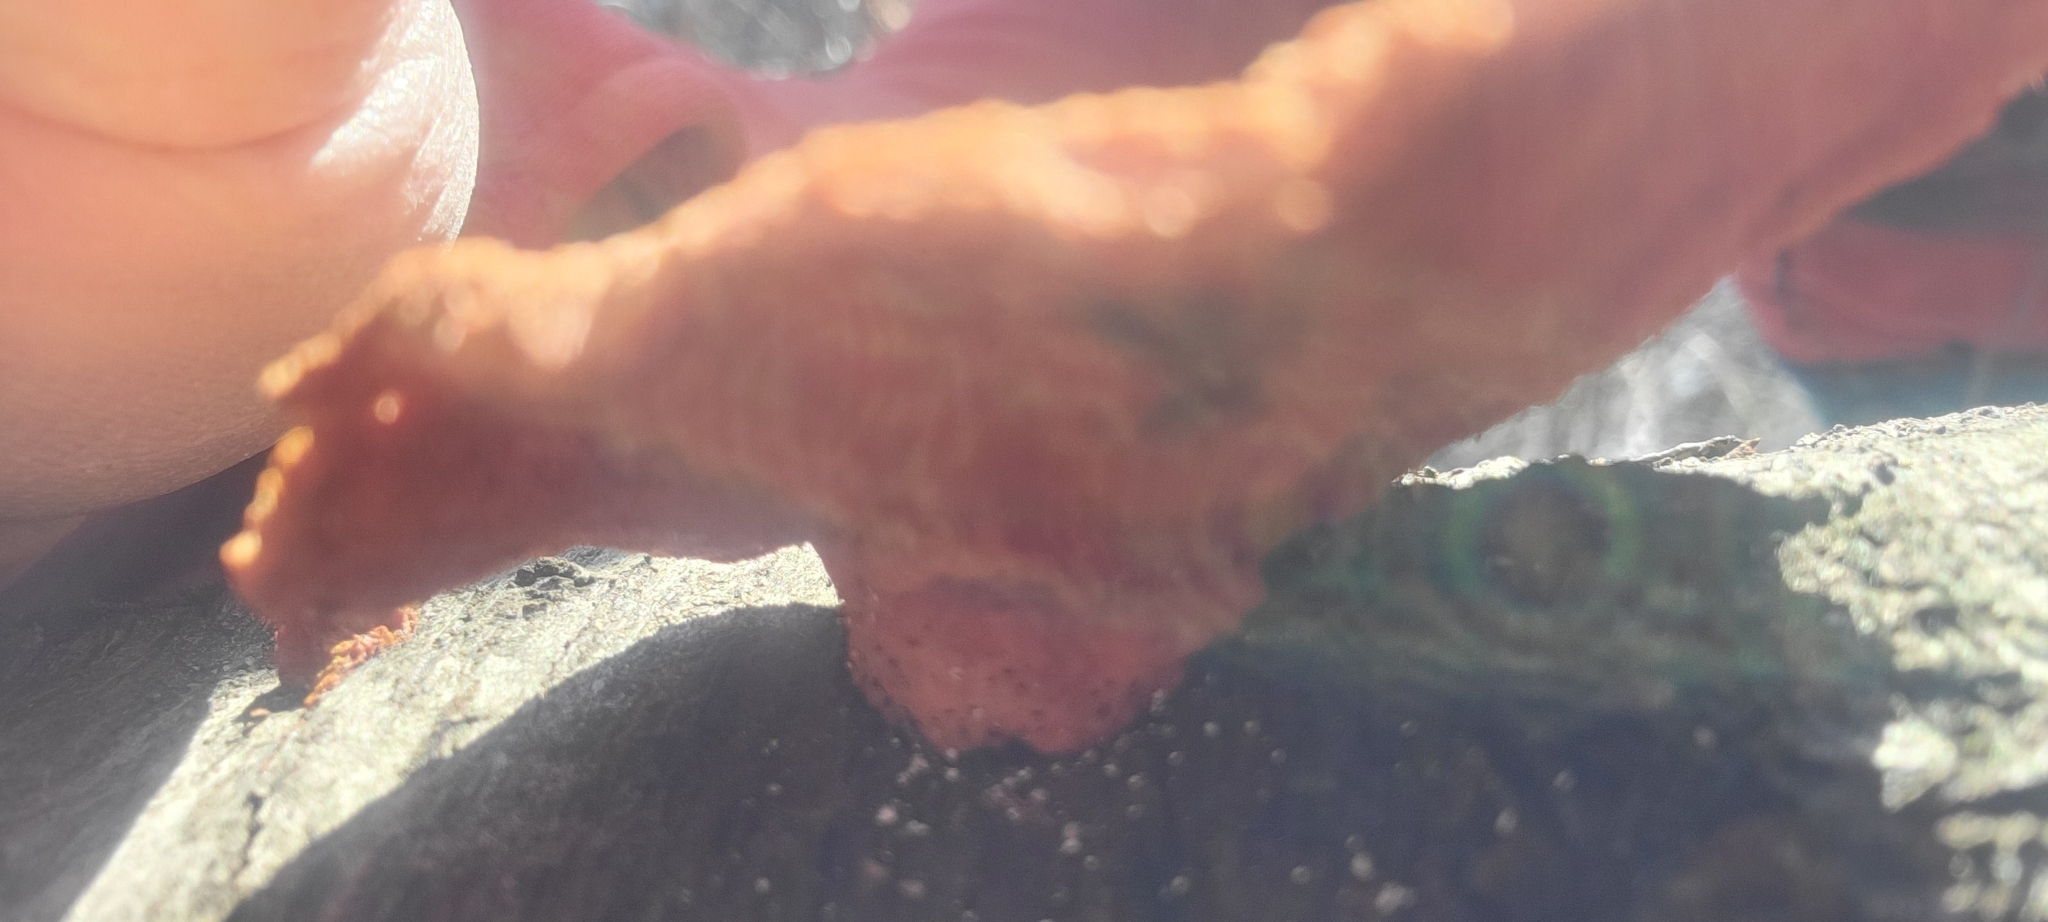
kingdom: Fungi
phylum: Basidiomycota
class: Agaricomycetes
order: Polyporales
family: Polyporaceae
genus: Trametes
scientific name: Trametes cinnabarina
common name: Northern cinnabar polypore
